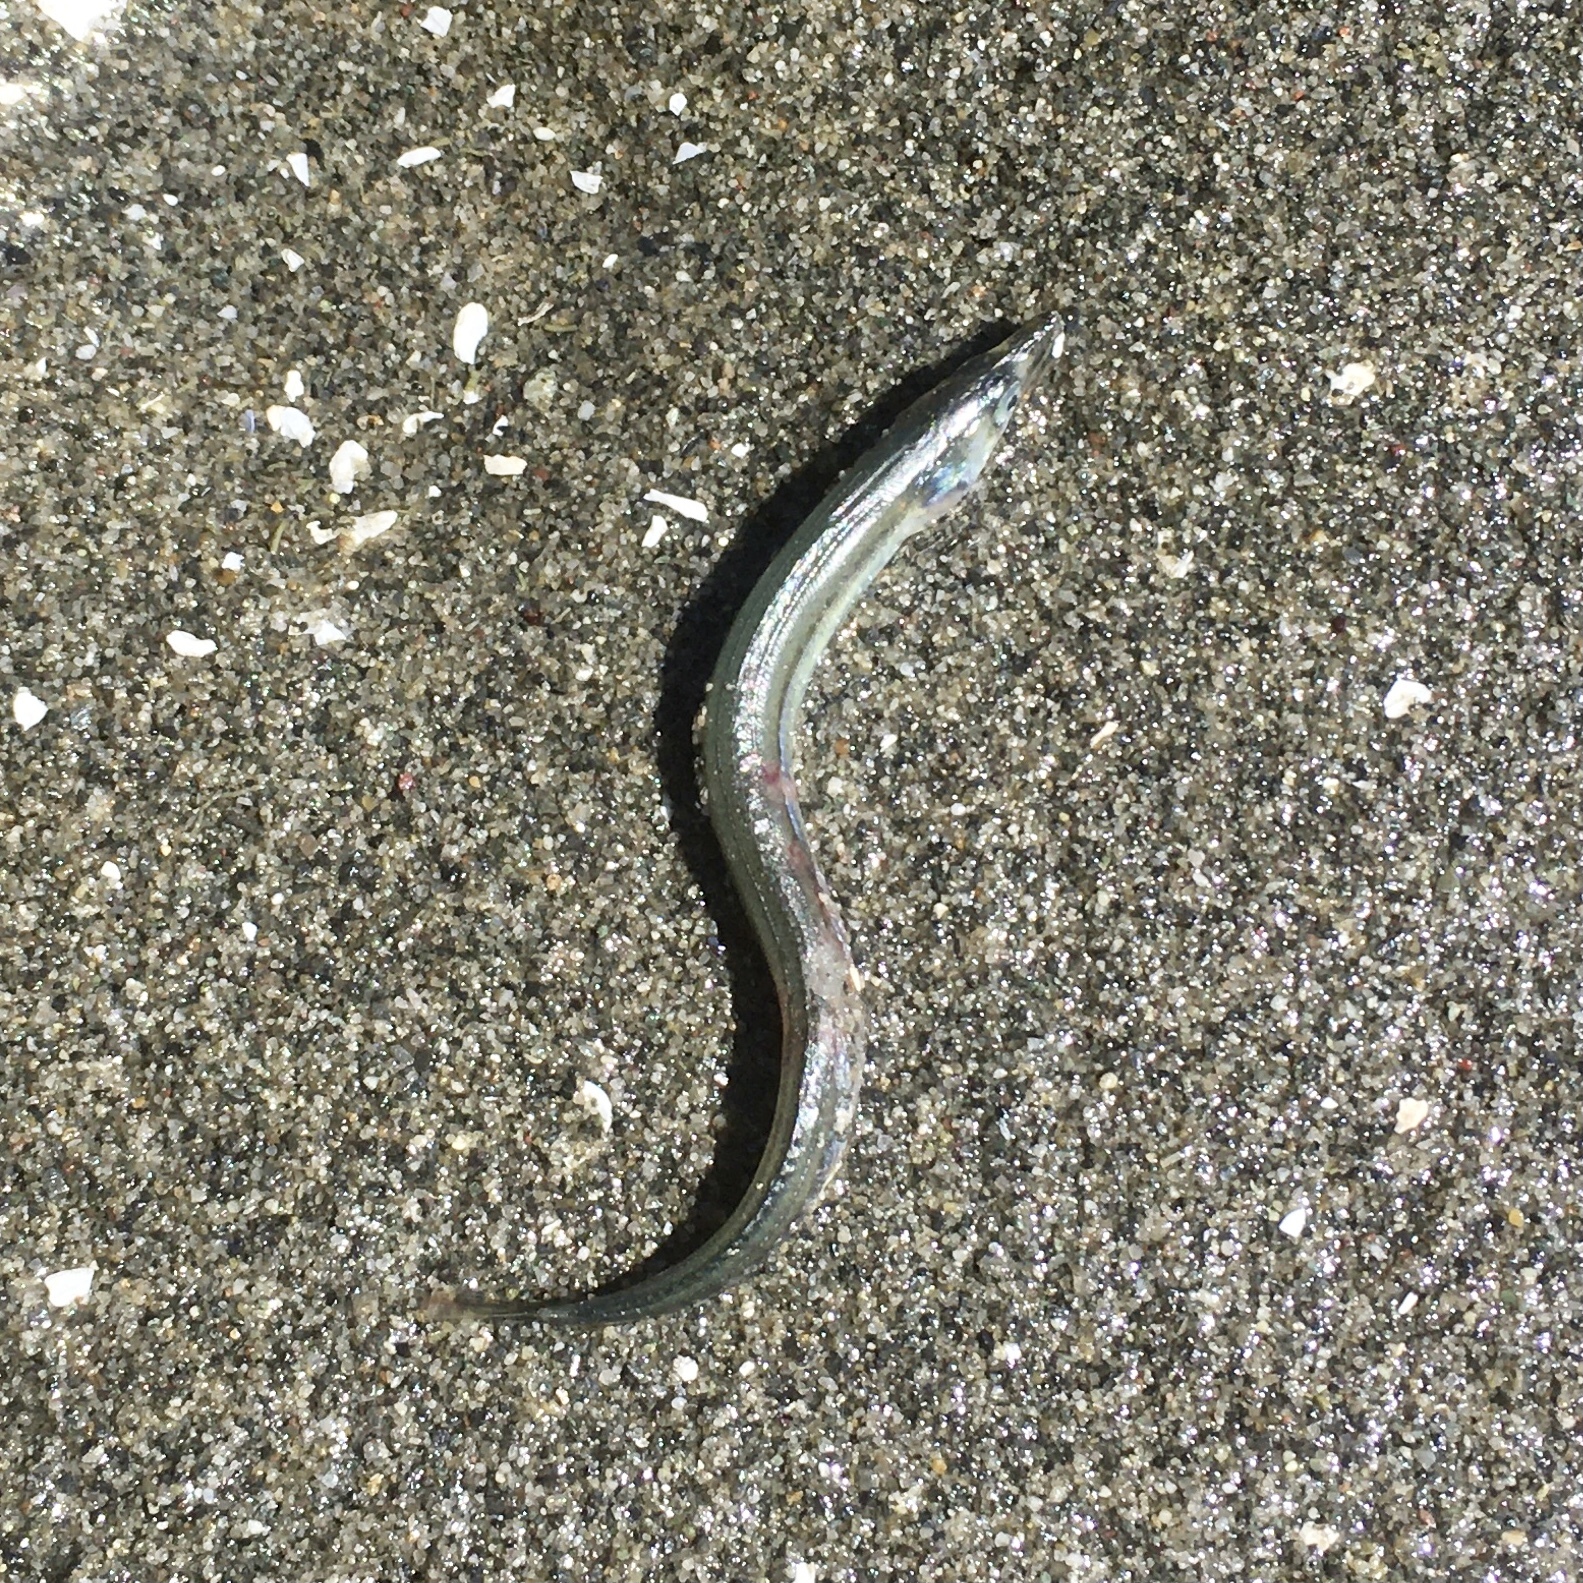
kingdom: Animalia
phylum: Chordata
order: Perciformes
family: Ammodytidae
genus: Ammodytes
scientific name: Ammodytes personatus
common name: Japanese sand lance
